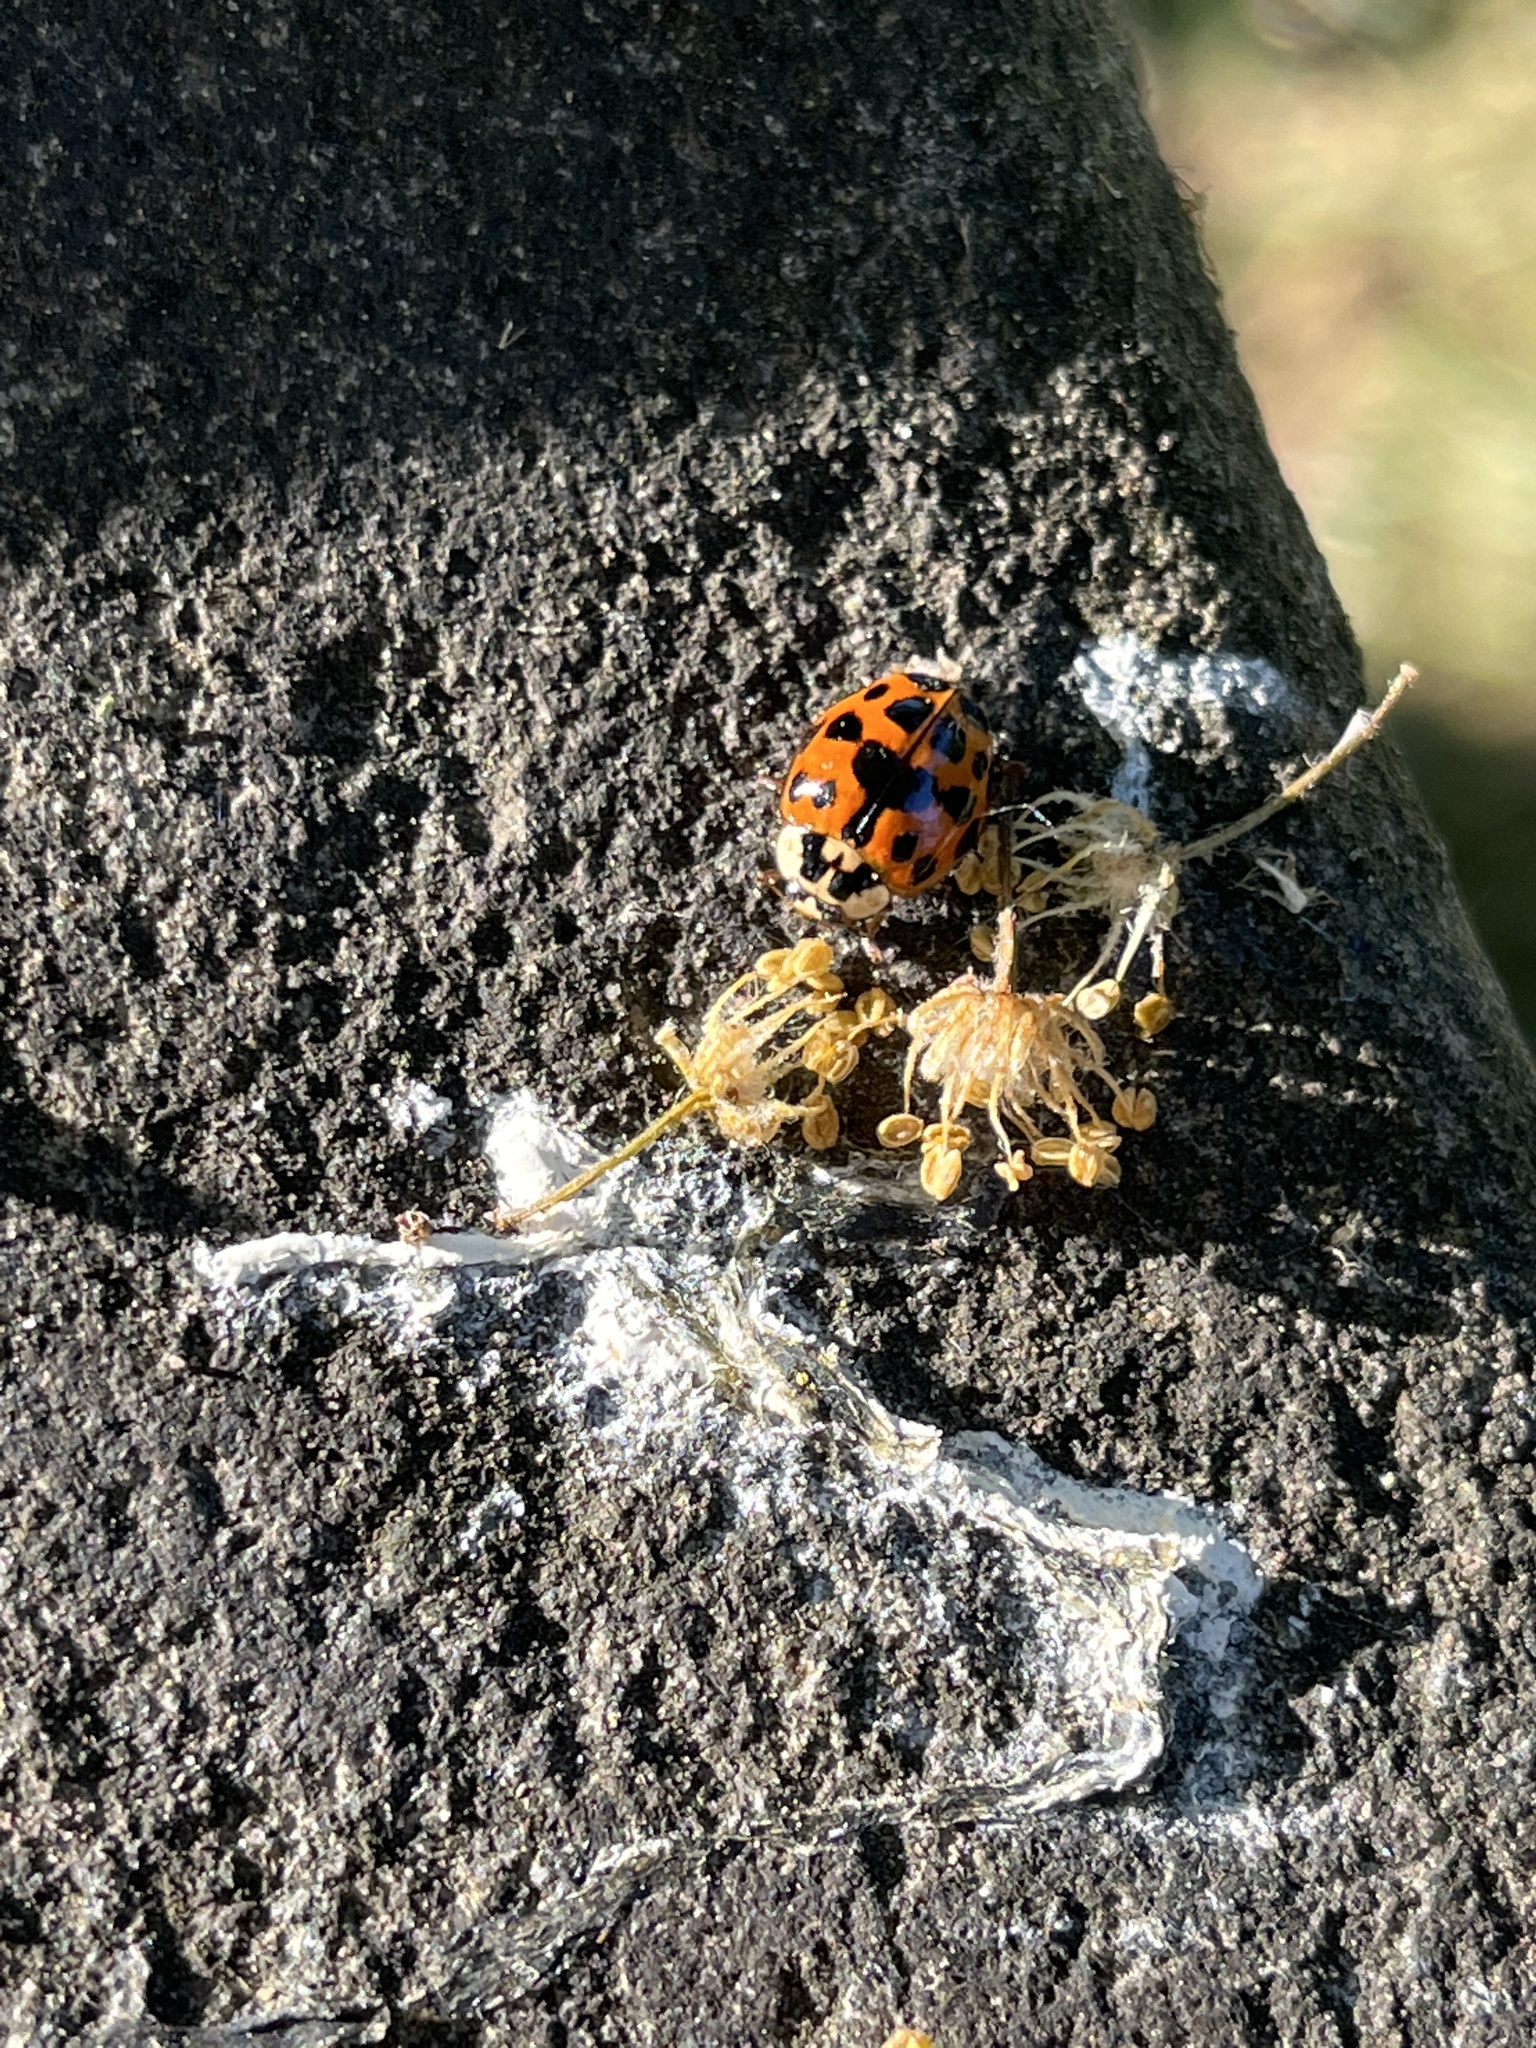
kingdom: Animalia
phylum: Arthropoda
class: Insecta
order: Coleoptera
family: Coccinellidae
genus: Harmonia
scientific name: Harmonia axyridis
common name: Harlequin ladybird
